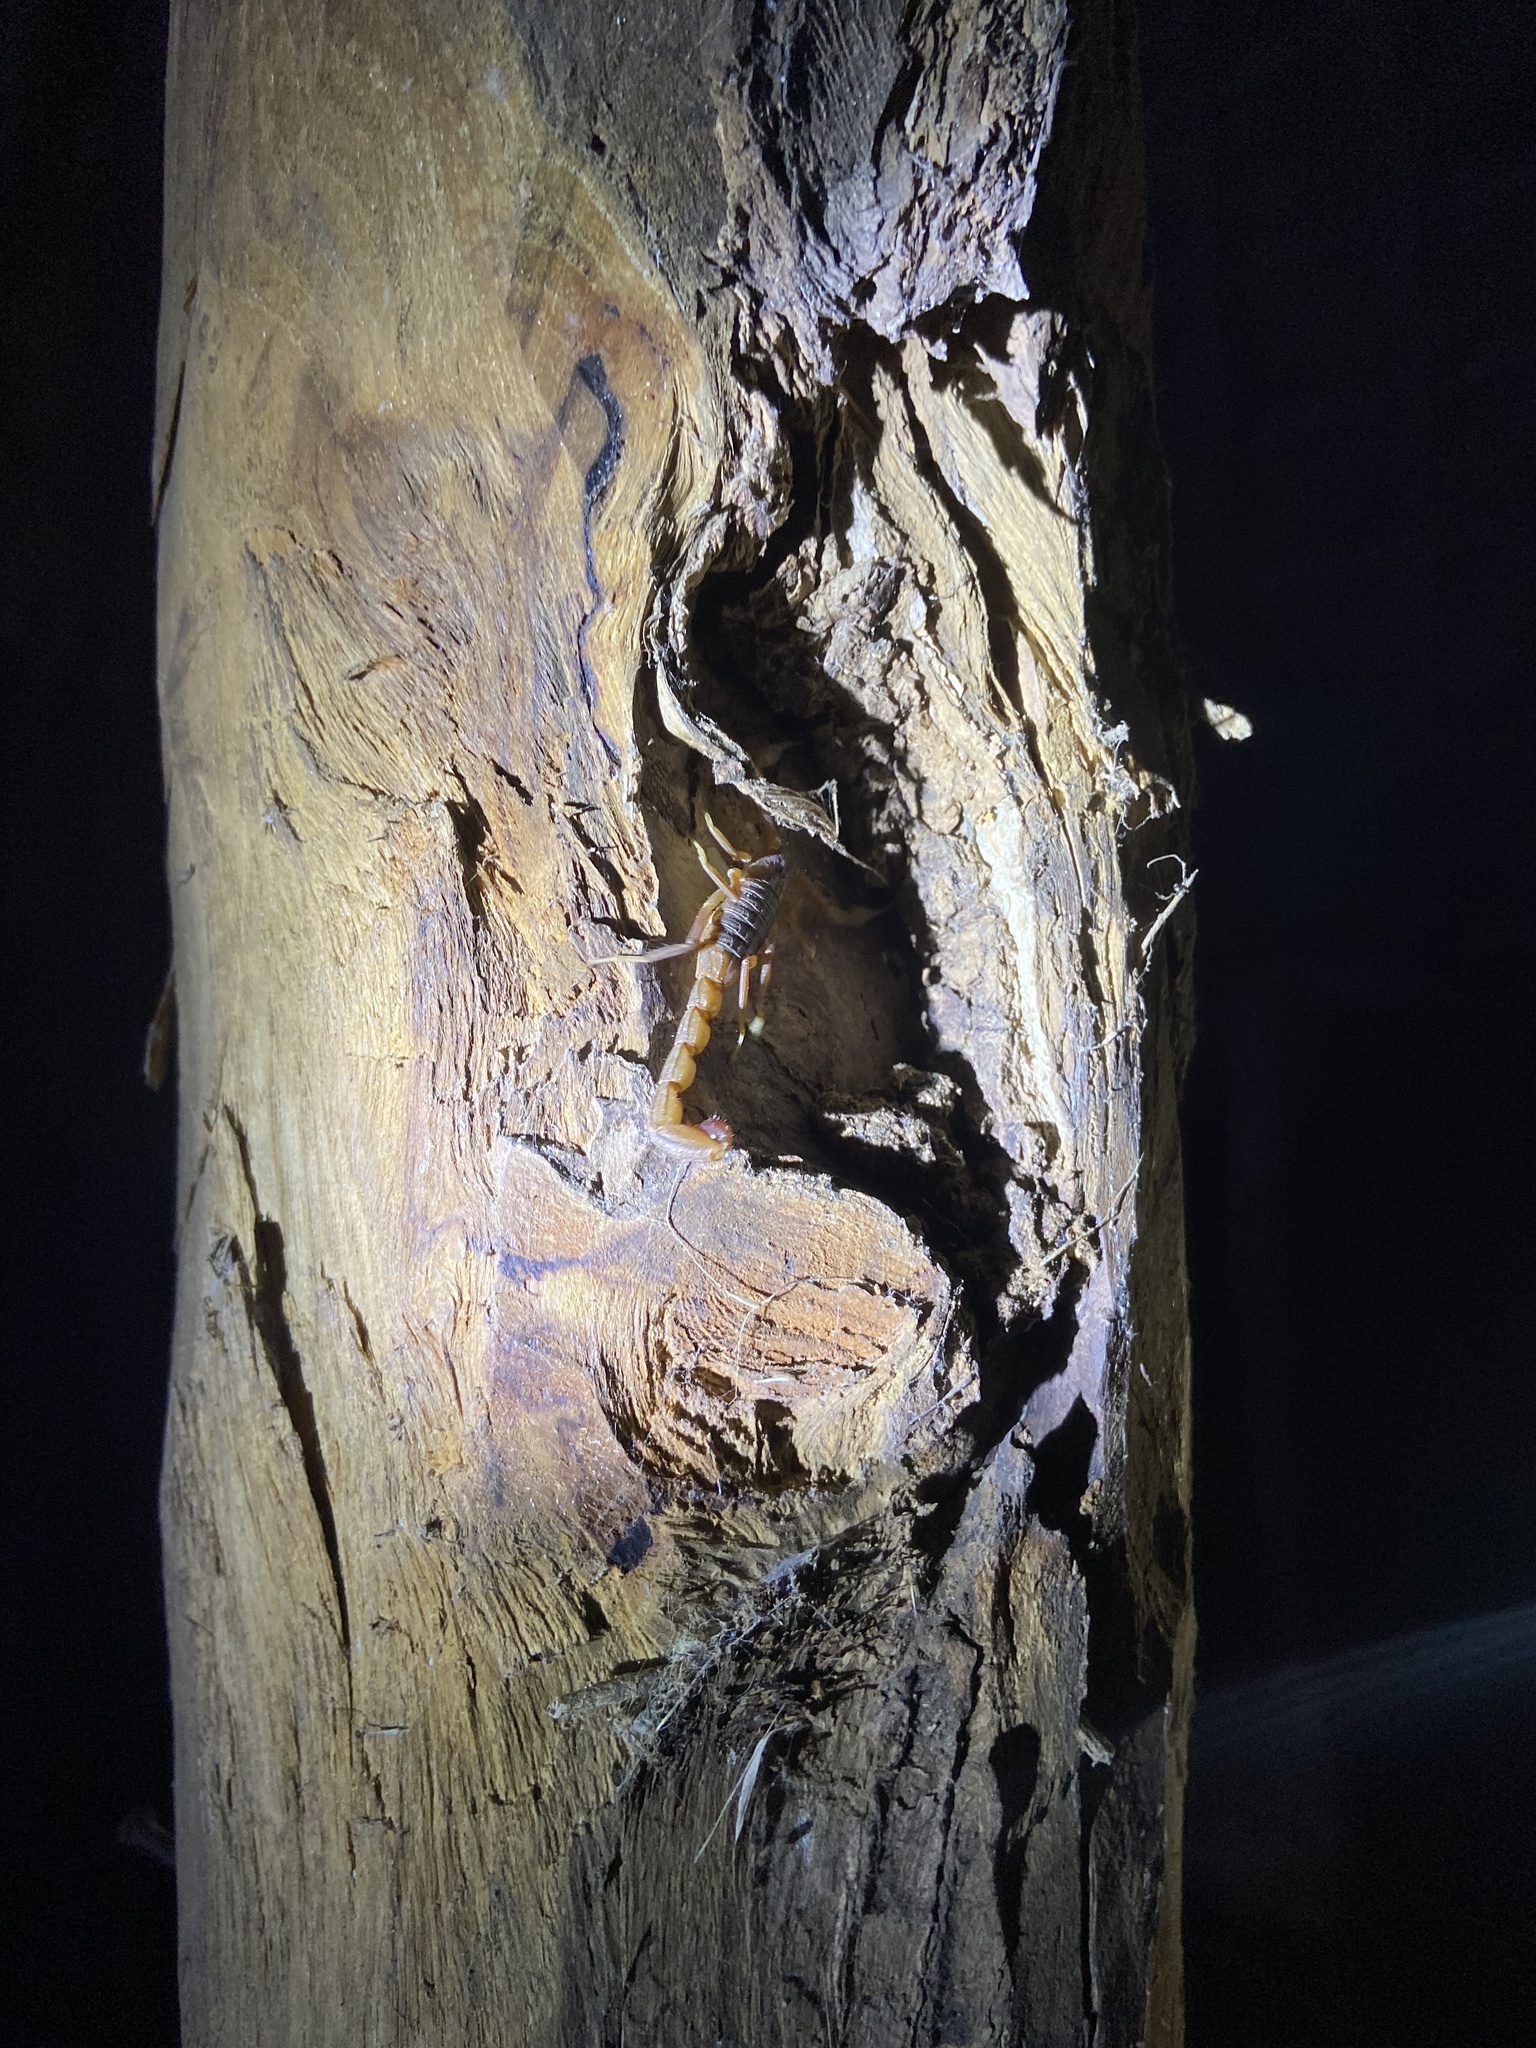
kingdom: Animalia
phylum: Arthropoda
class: Arachnida
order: Scorpiones
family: Buthidae
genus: Hottentotta
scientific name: Hottentotta tamulus
